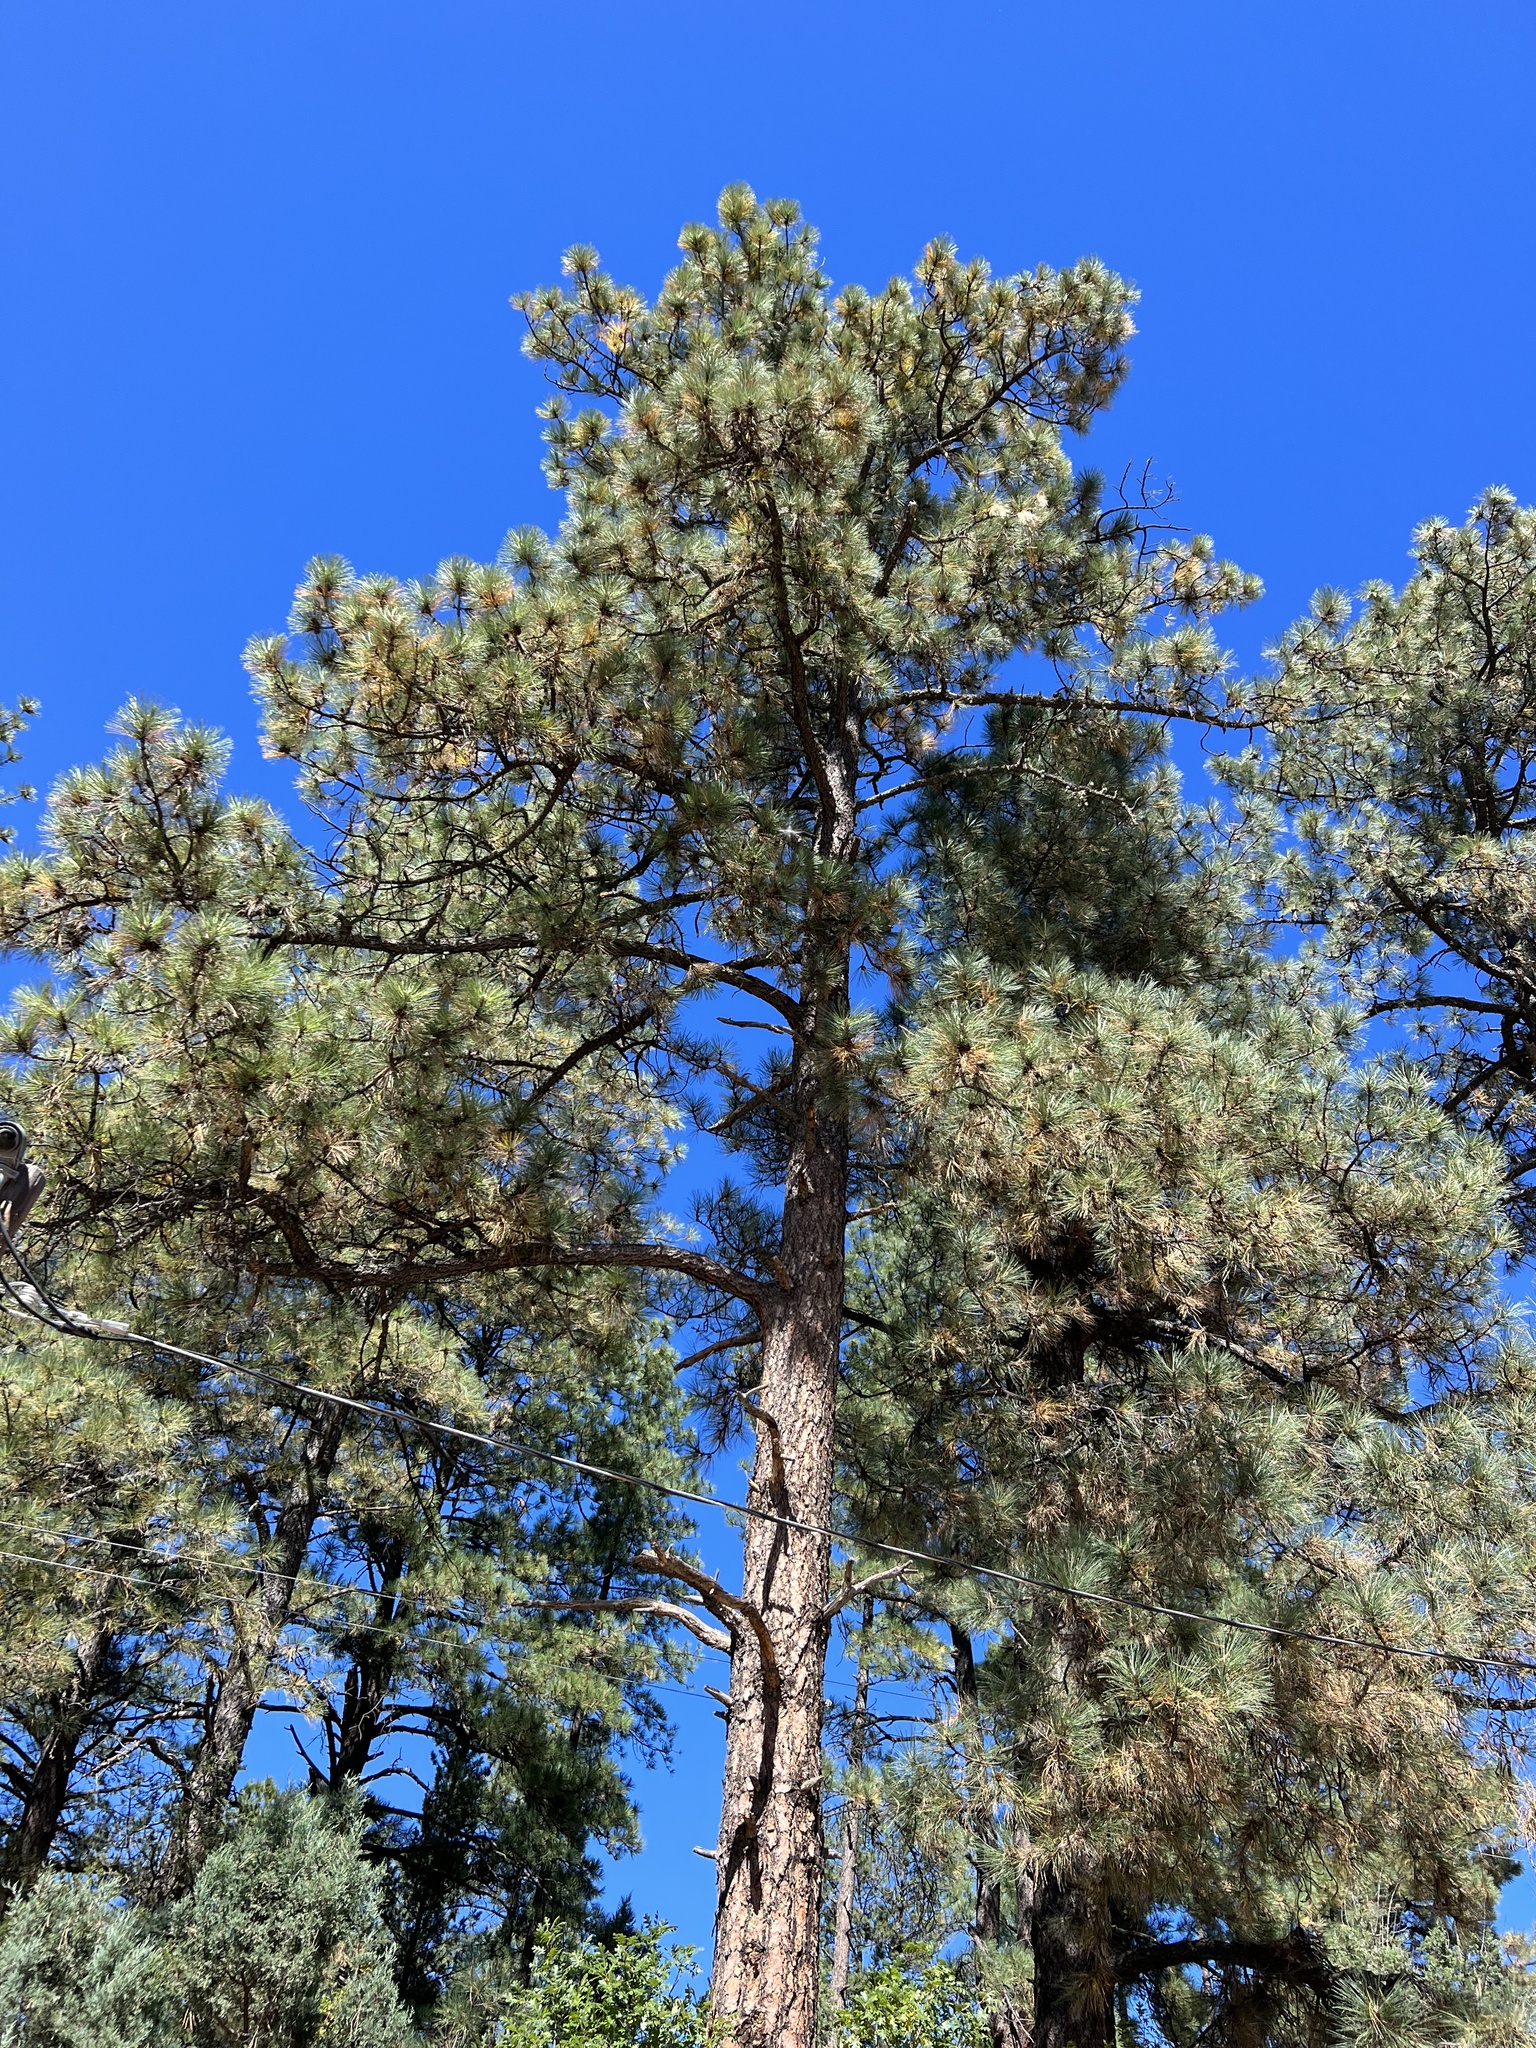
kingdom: Plantae
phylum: Tracheophyta
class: Pinopsida
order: Pinales
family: Pinaceae
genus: Pinus
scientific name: Pinus ponderosa
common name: Western yellow-pine
